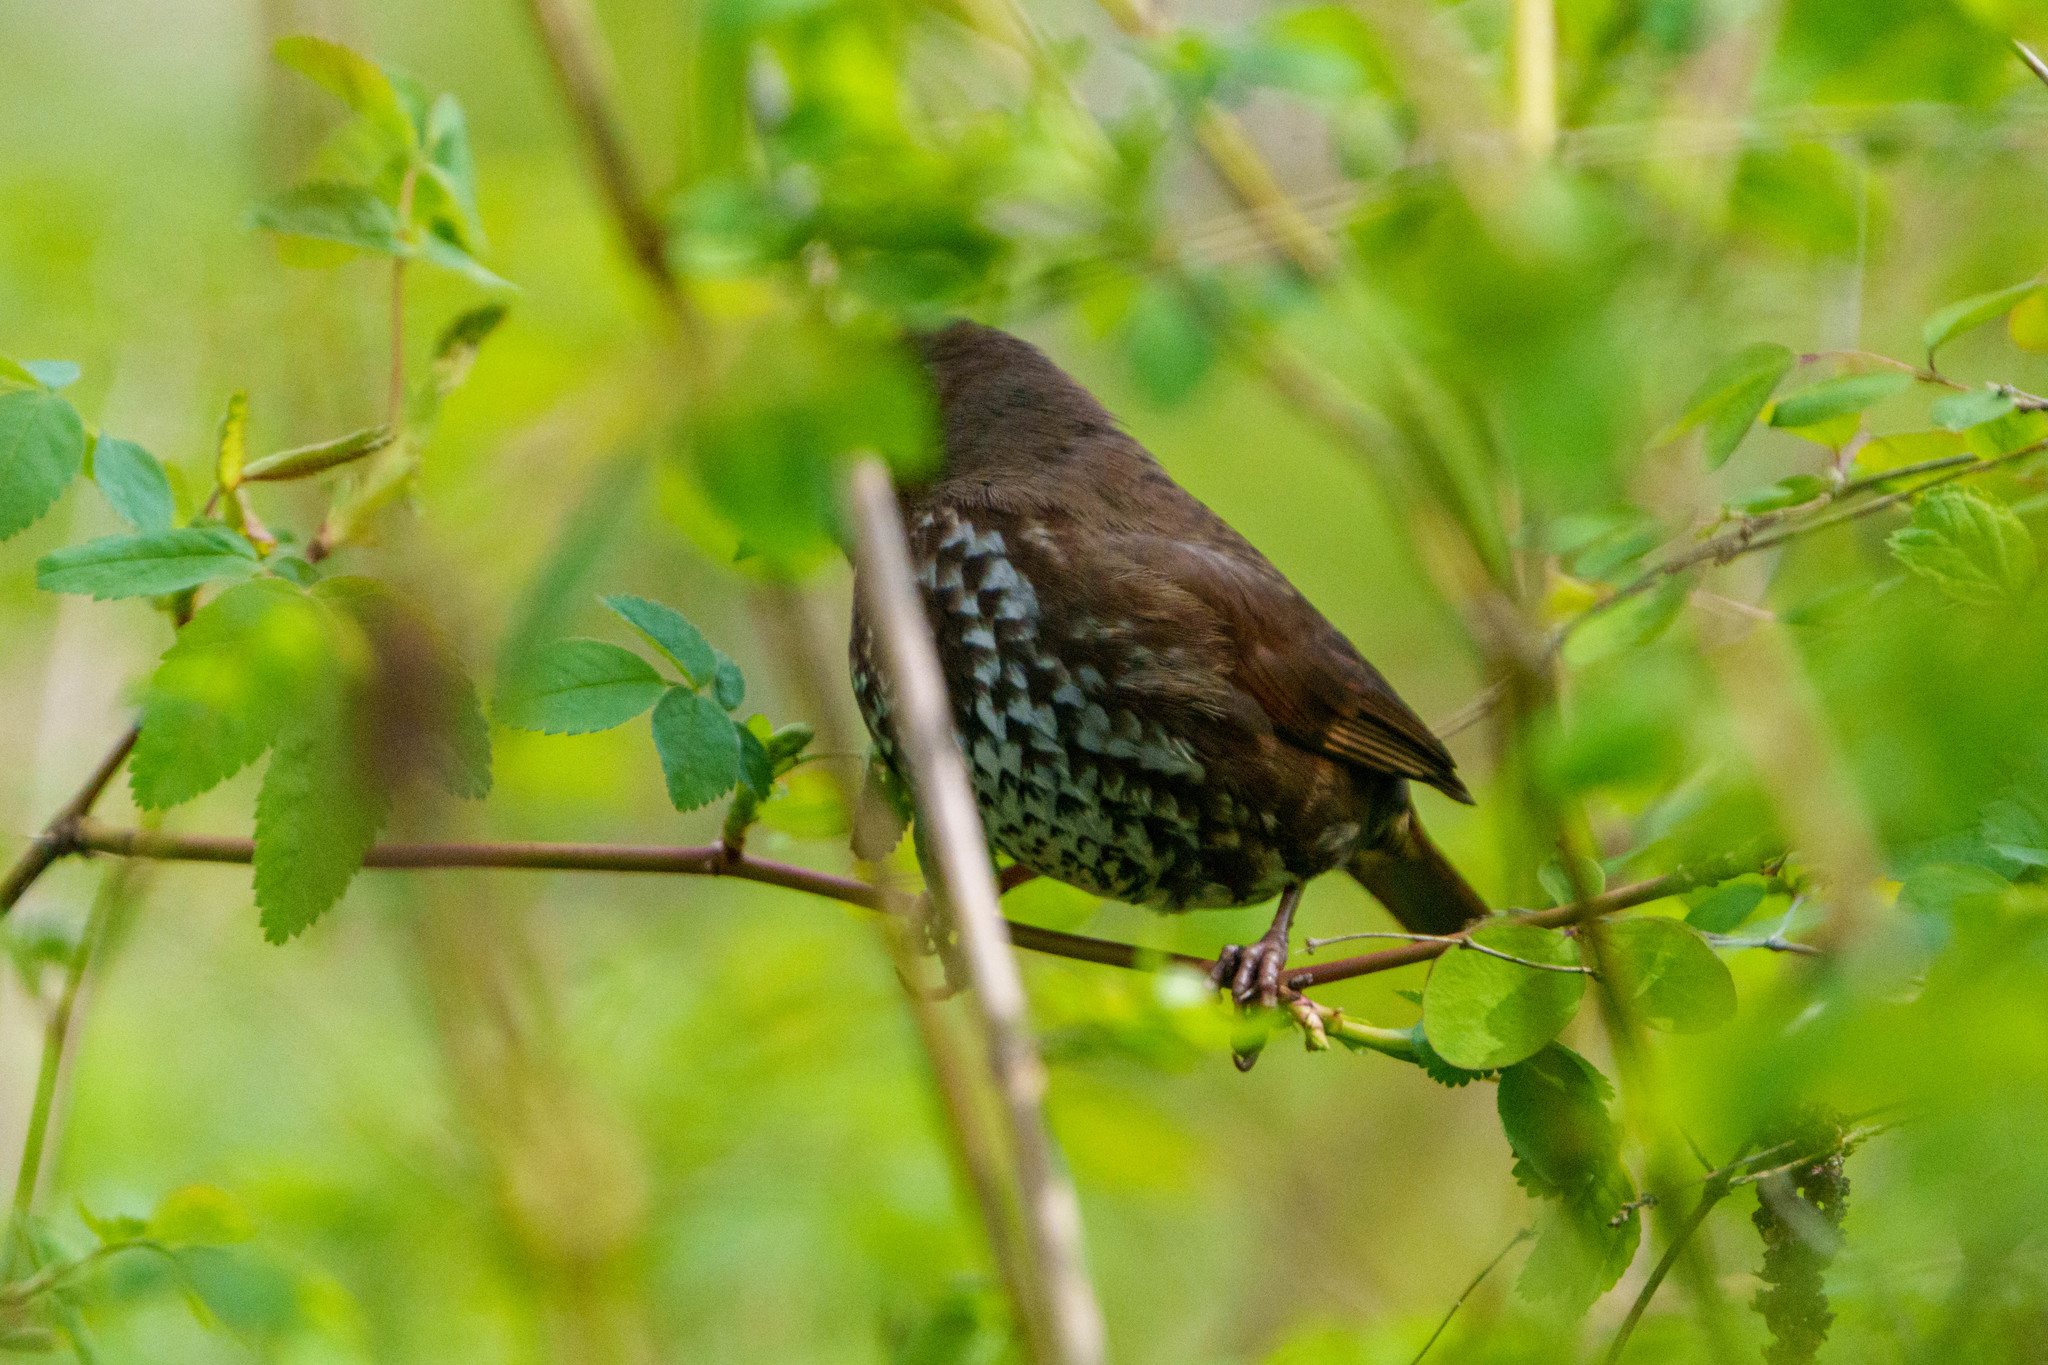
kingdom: Animalia
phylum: Chordata
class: Aves
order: Passeriformes
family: Passerellidae
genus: Passerella
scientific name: Passerella iliaca
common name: Fox sparrow
